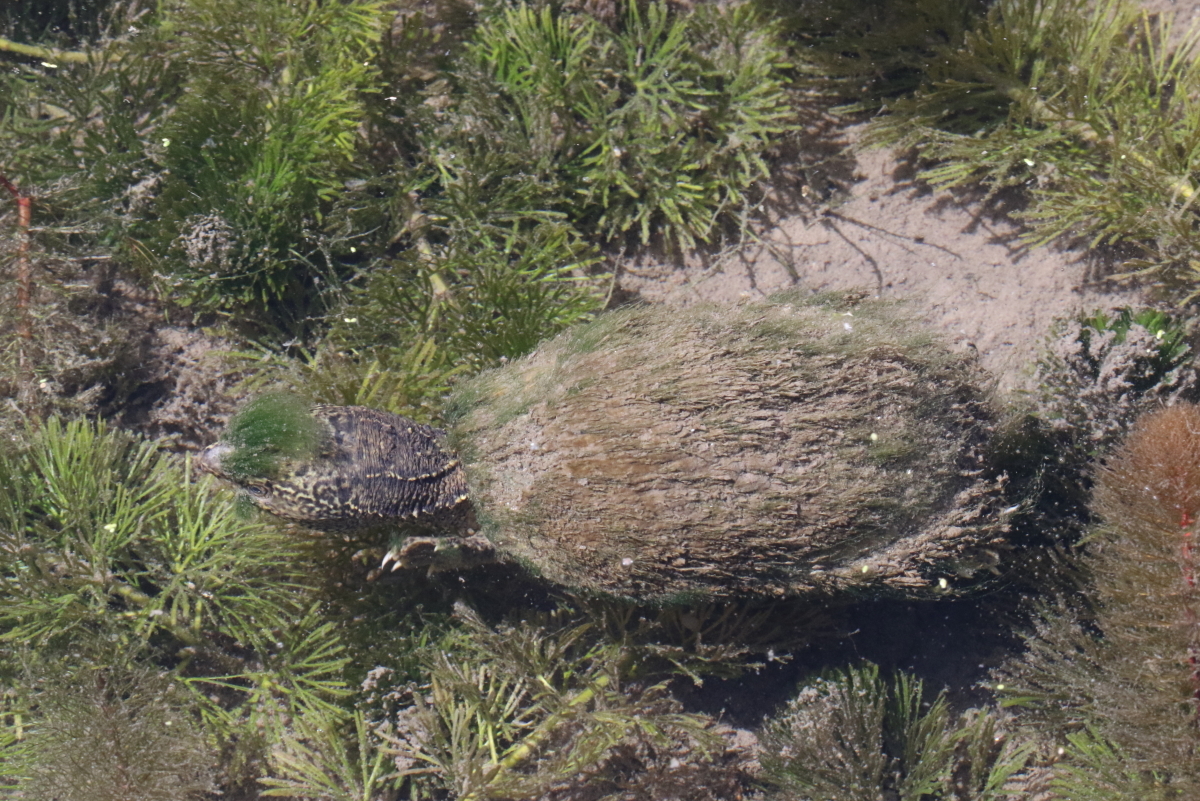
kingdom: Animalia
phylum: Chordata
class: Testudines
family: Kinosternidae
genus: Sternotherus
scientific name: Sternotherus odoratus
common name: Common musk turtle
